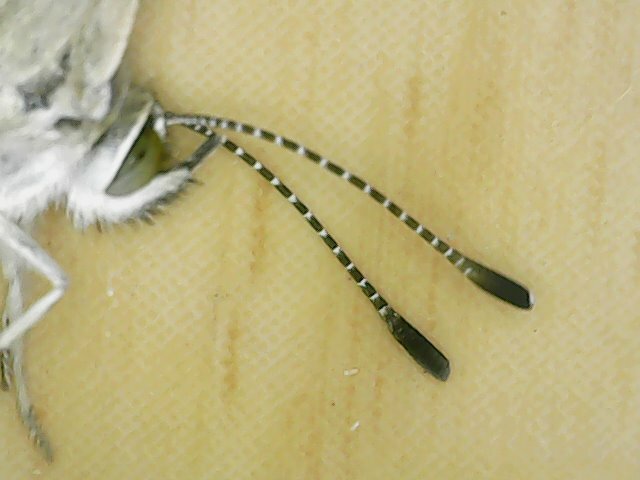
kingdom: Animalia
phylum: Arthropoda
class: Insecta
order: Lepidoptera
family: Lycaenidae
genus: Pseudozizeeria
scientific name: Pseudozizeeria maha
